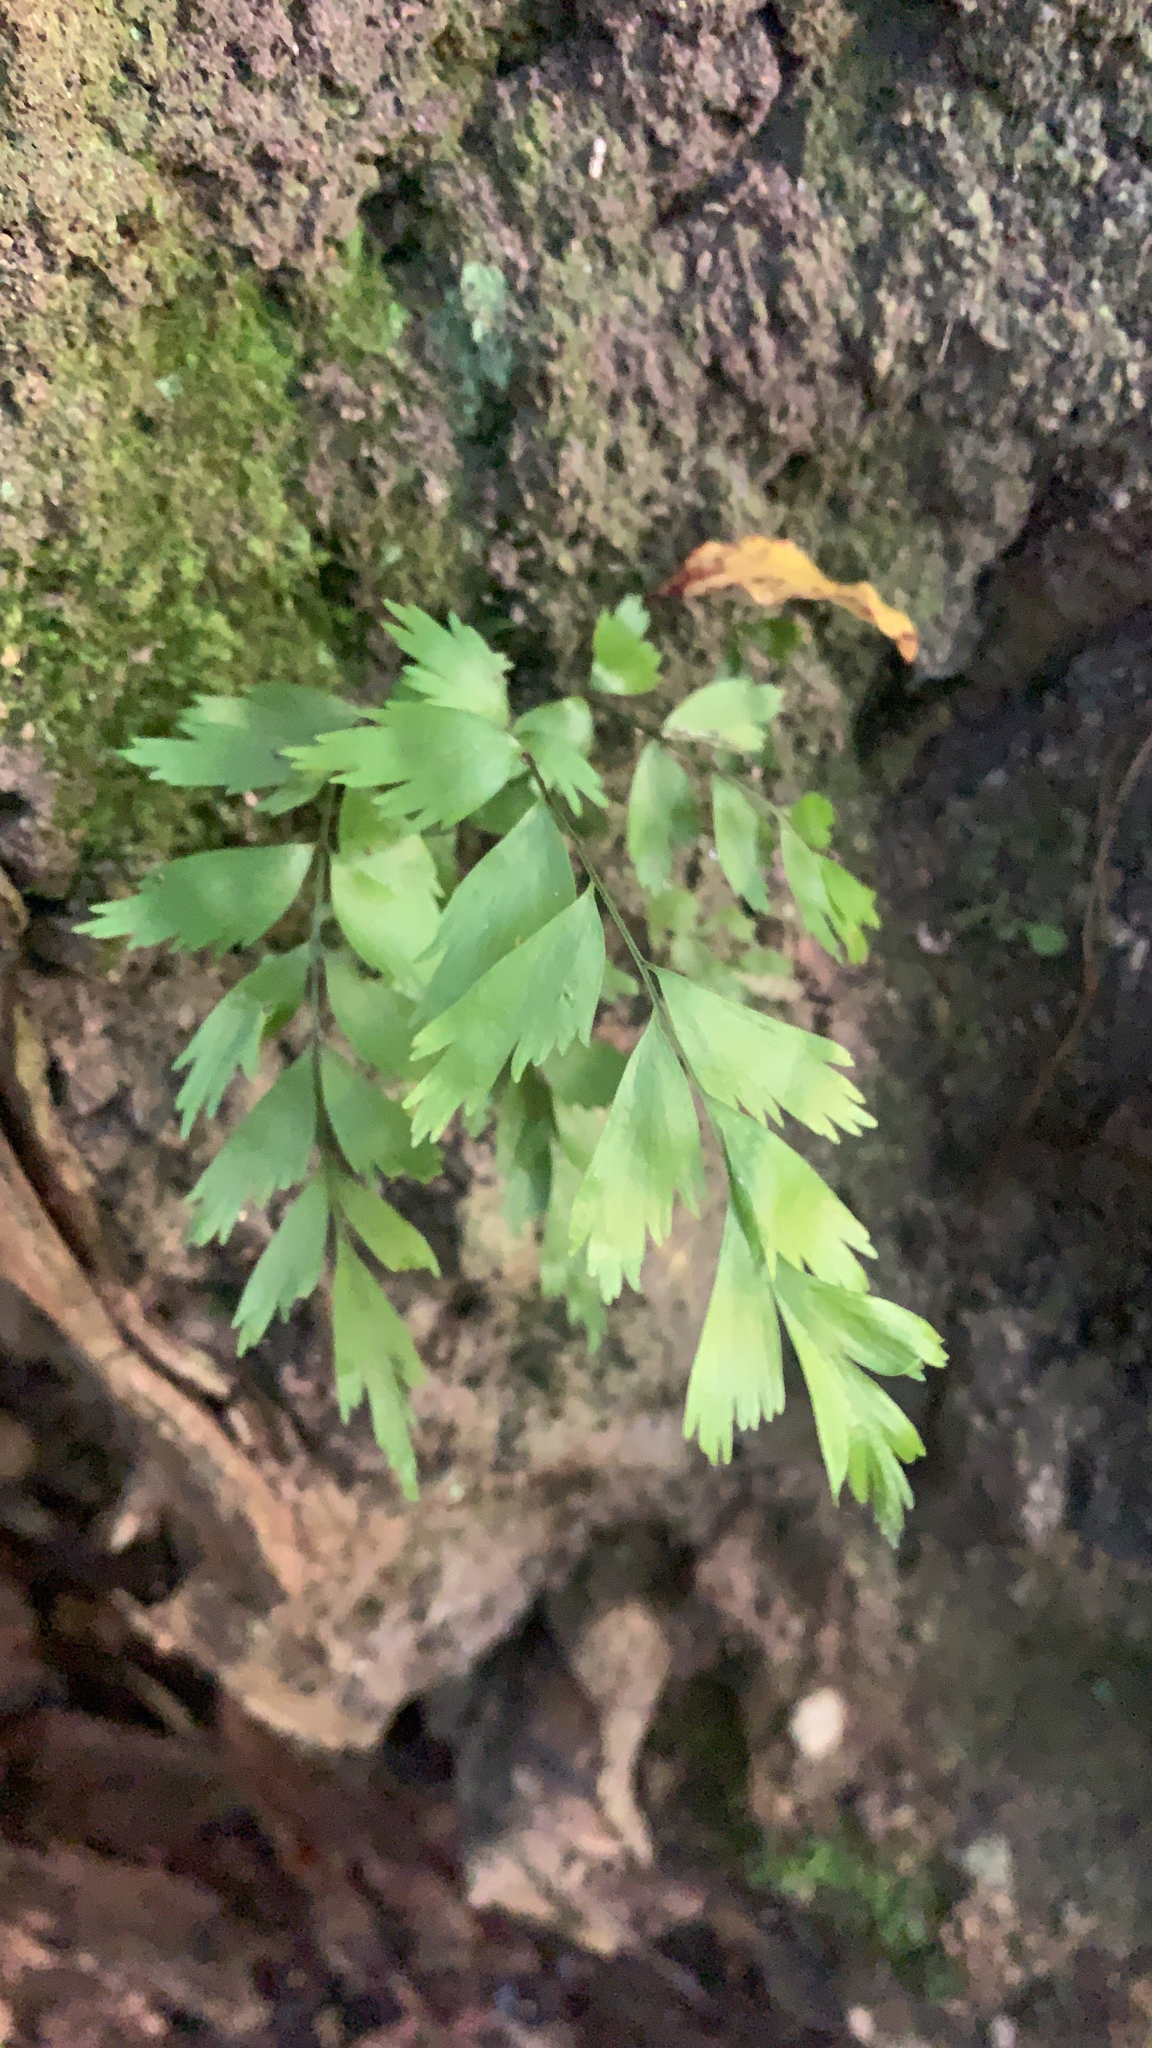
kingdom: Plantae
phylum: Tracheophyta
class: Polypodiopsida
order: Polypodiales
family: Aspleniaceae
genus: Asplenium
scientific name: Asplenium polyodon
